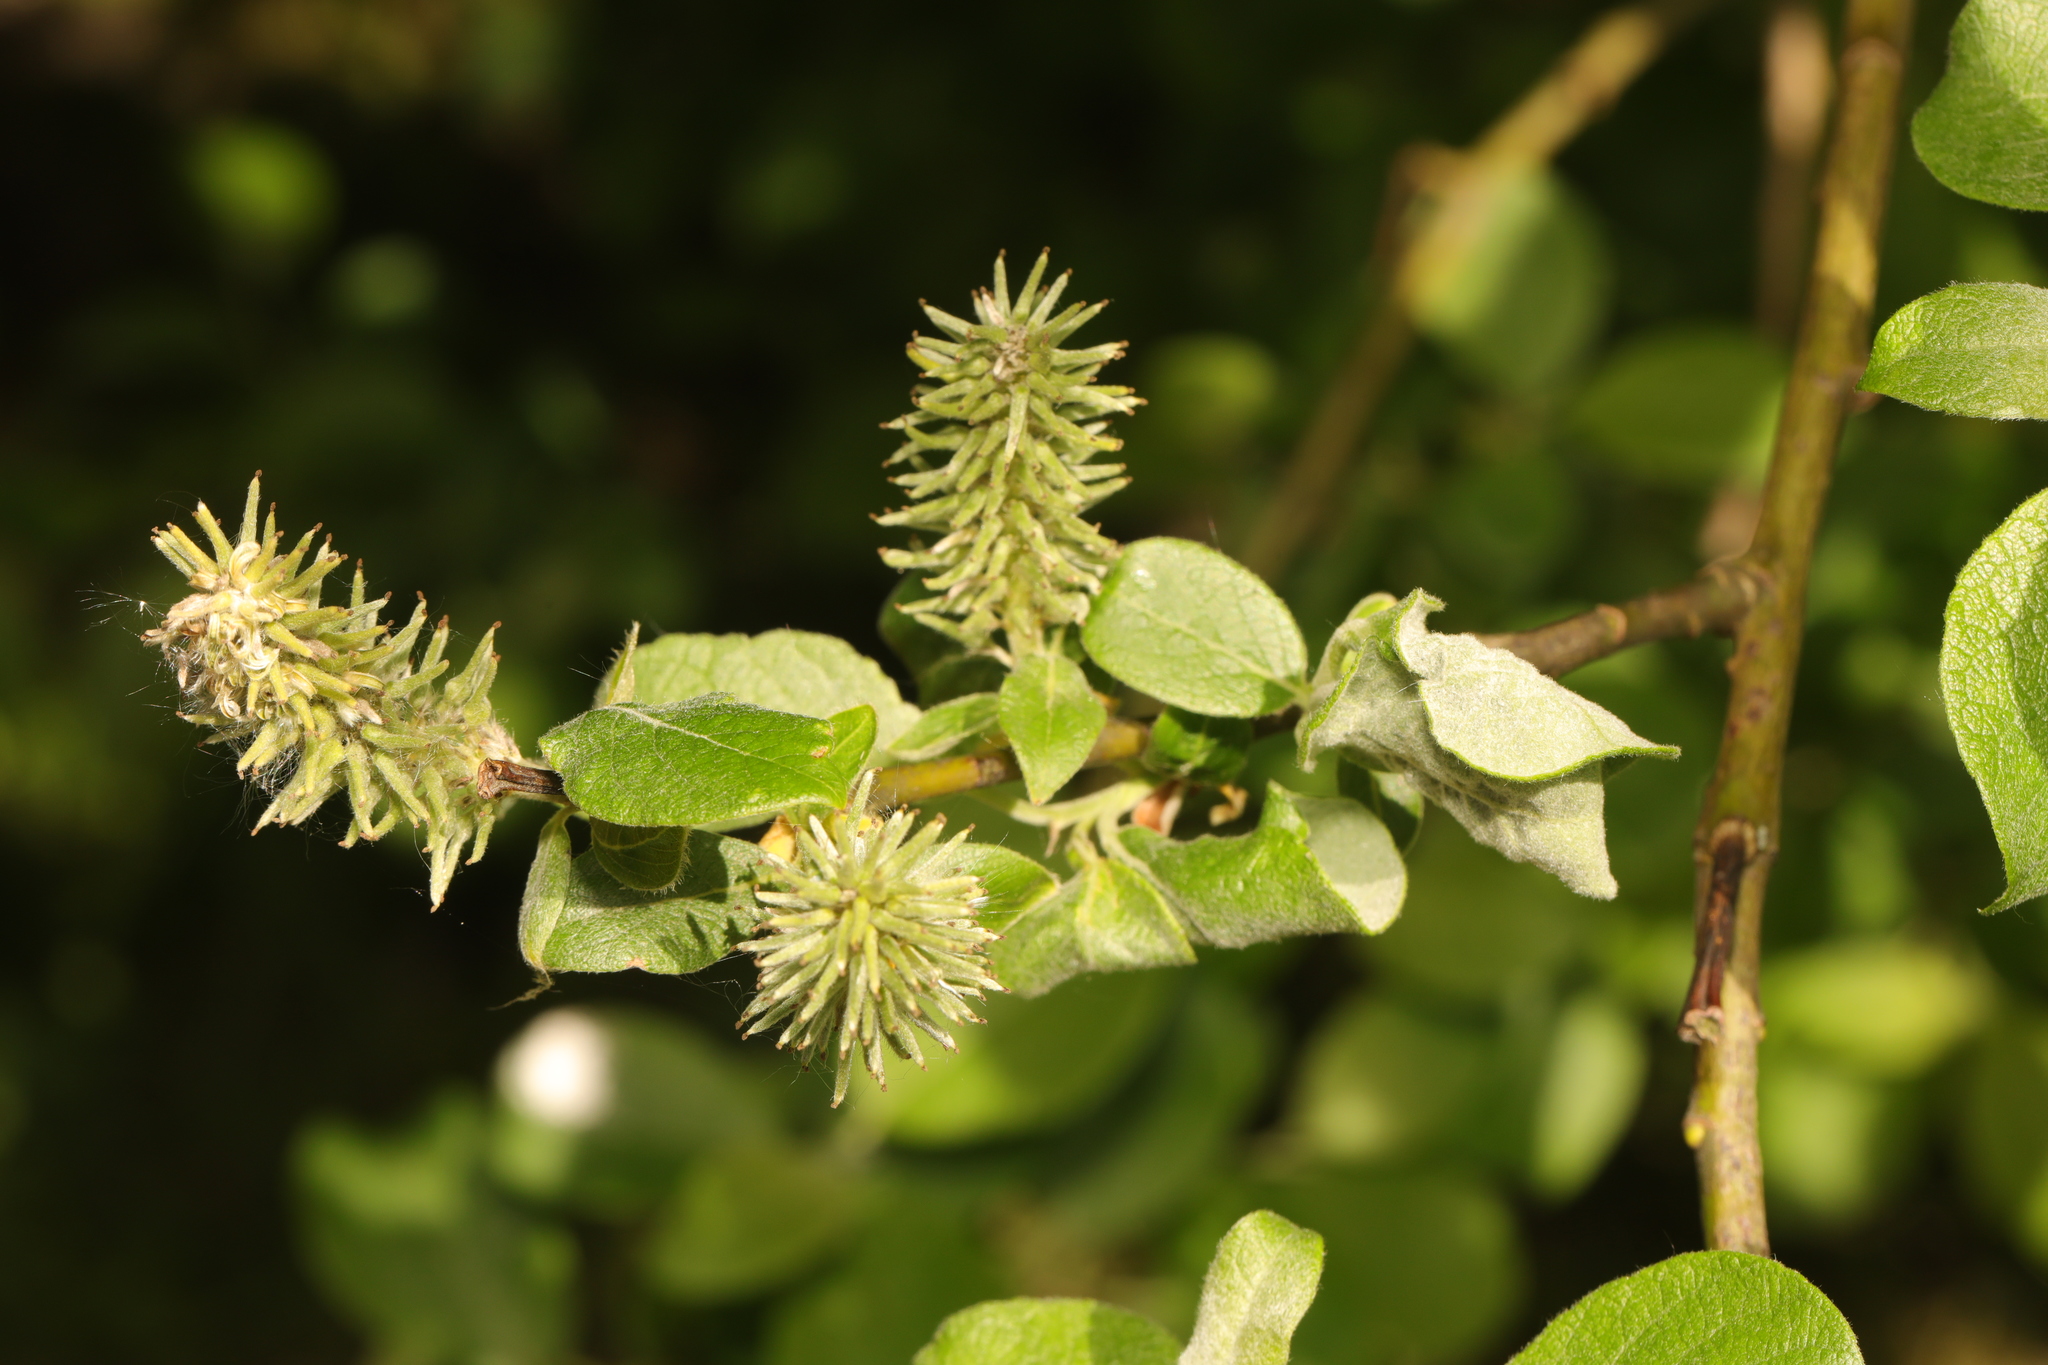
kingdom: Plantae
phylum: Tracheophyta
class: Magnoliopsida
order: Malpighiales
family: Salicaceae
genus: Salix
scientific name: Salix caprea
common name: Goat willow
